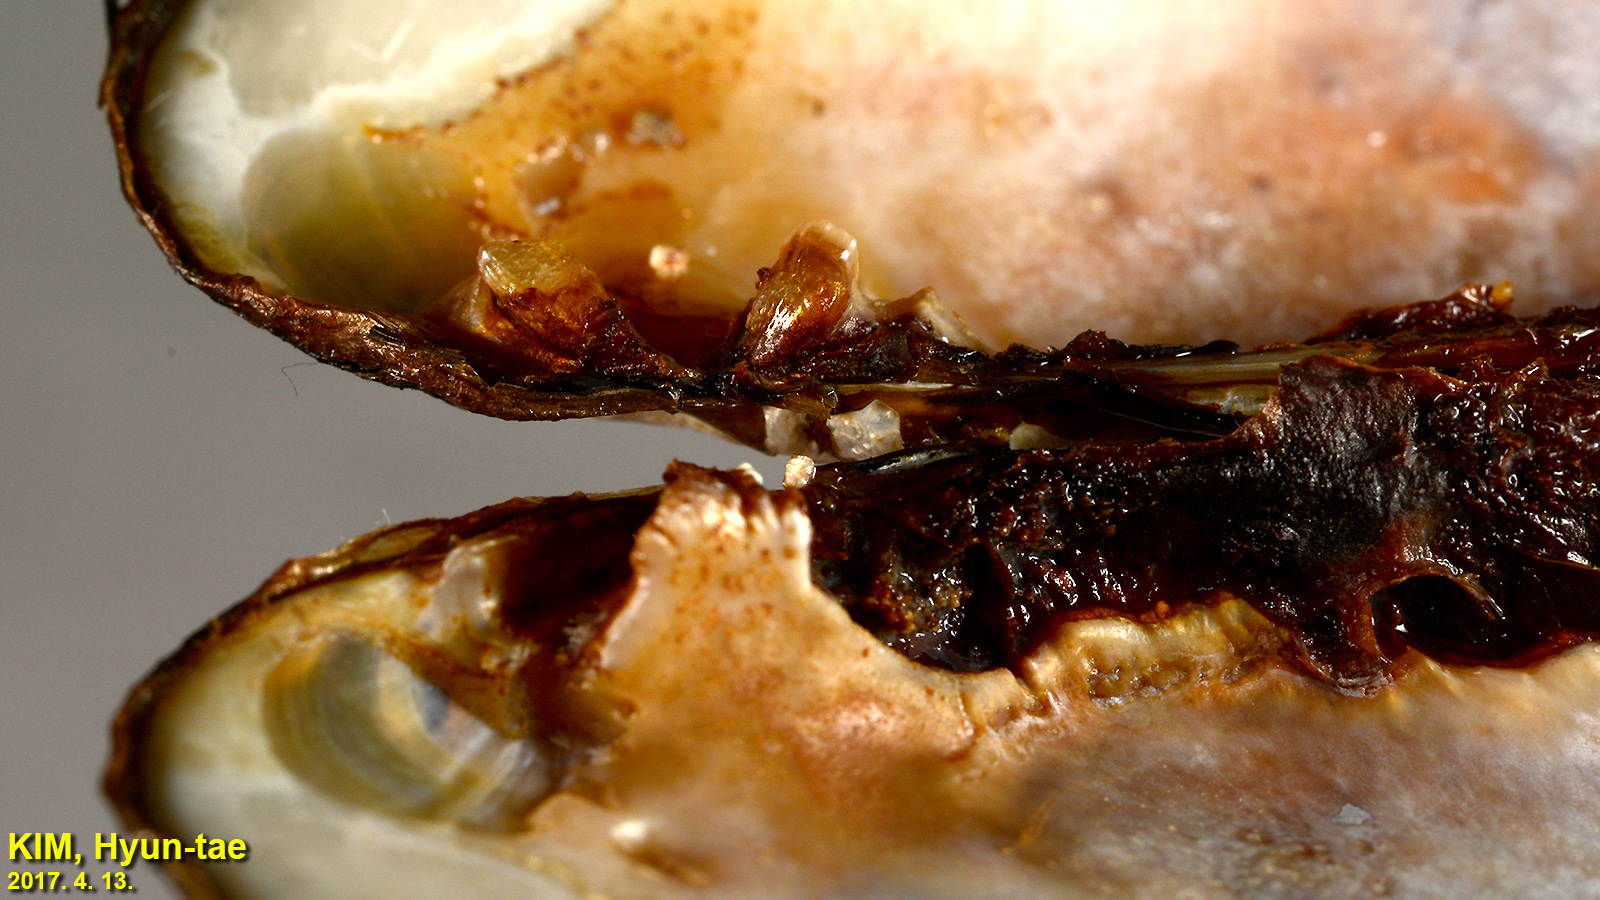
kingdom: Animalia
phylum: Mollusca
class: Bivalvia
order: Unionida
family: Unionidae
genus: Lanceolaria
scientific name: Lanceolaria acrorrhyncha
